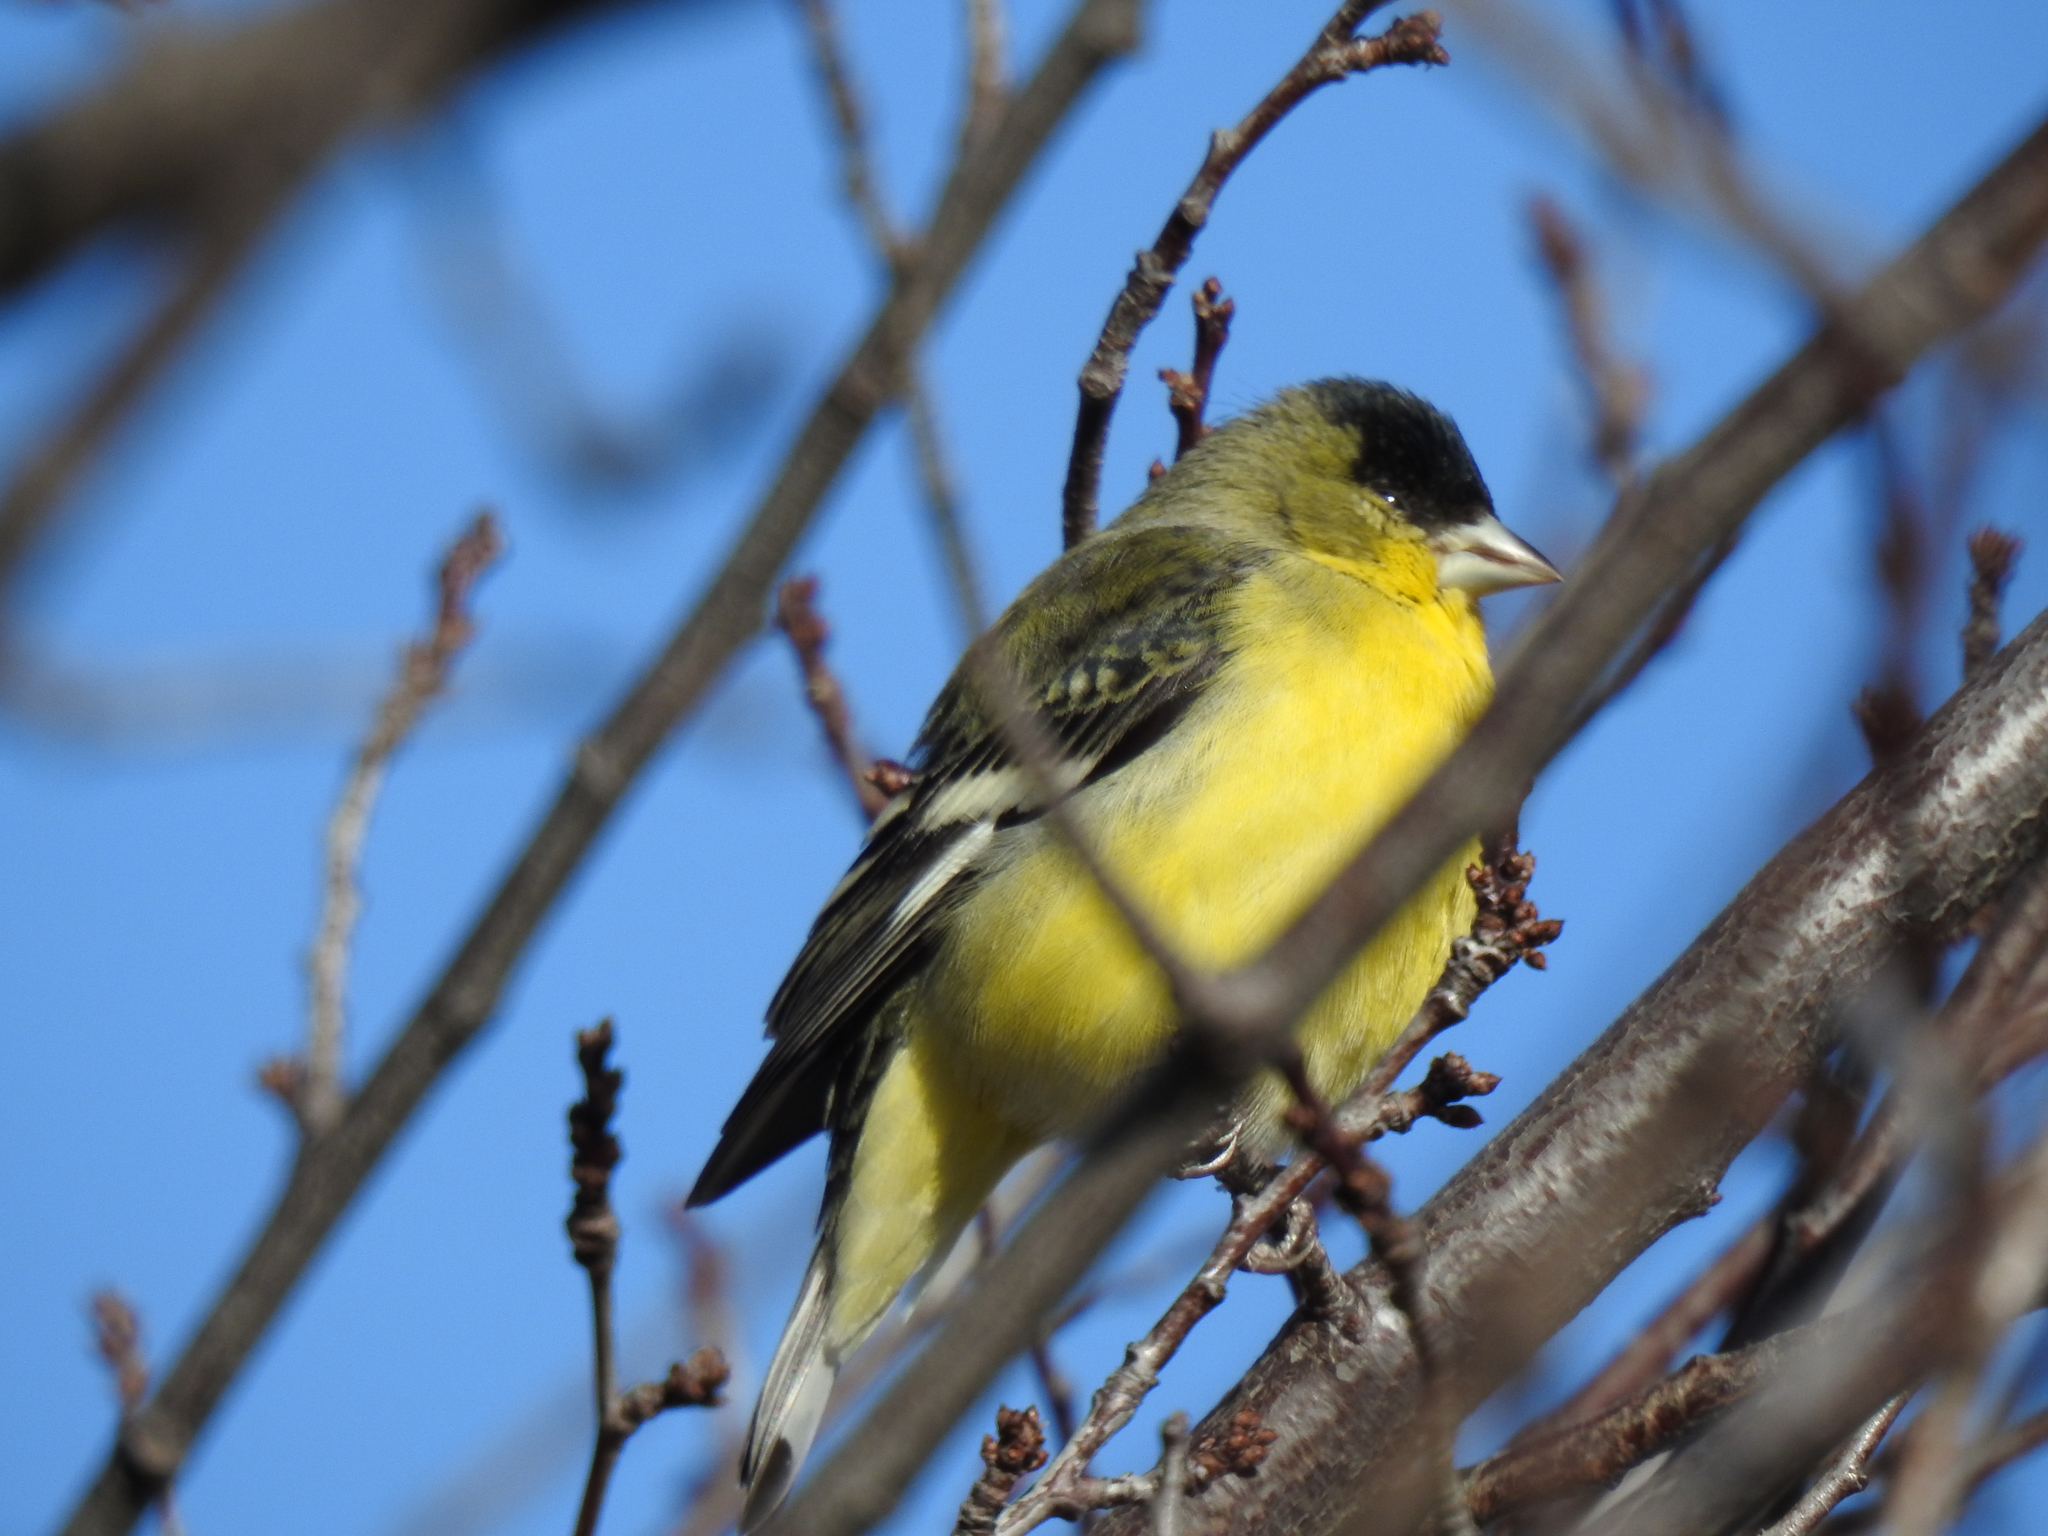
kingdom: Animalia
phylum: Chordata
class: Aves
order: Passeriformes
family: Fringillidae
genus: Spinus
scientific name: Spinus psaltria
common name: Lesser goldfinch
